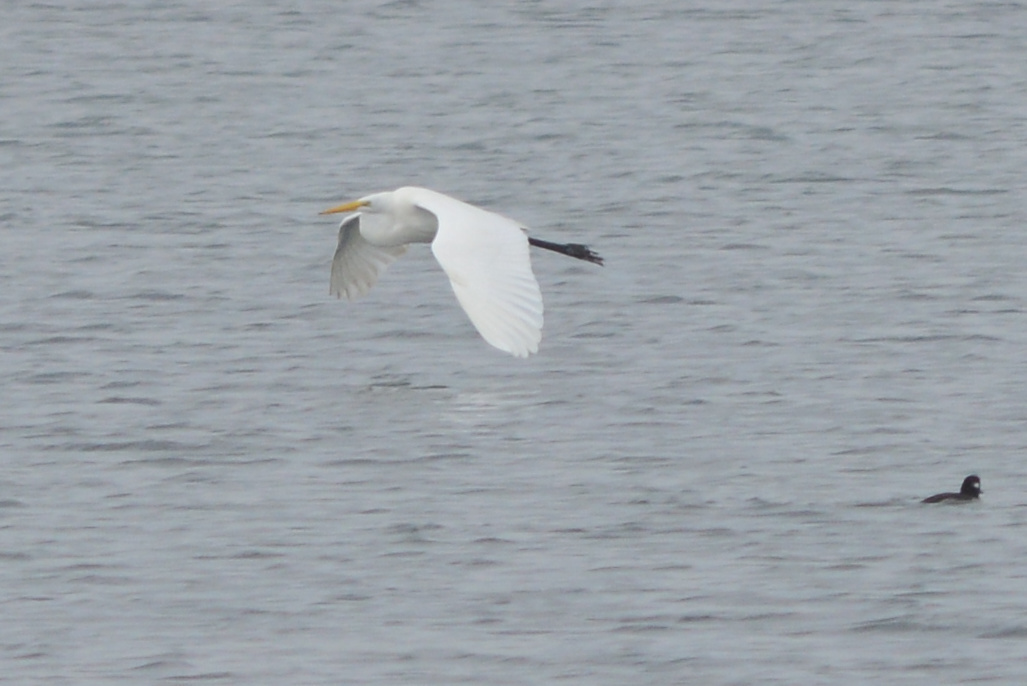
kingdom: Animalia
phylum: Chordata
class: Aves
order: Pelecaniformes
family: Ardeidae
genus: Ardea
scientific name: Ardea alba
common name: Great egret
